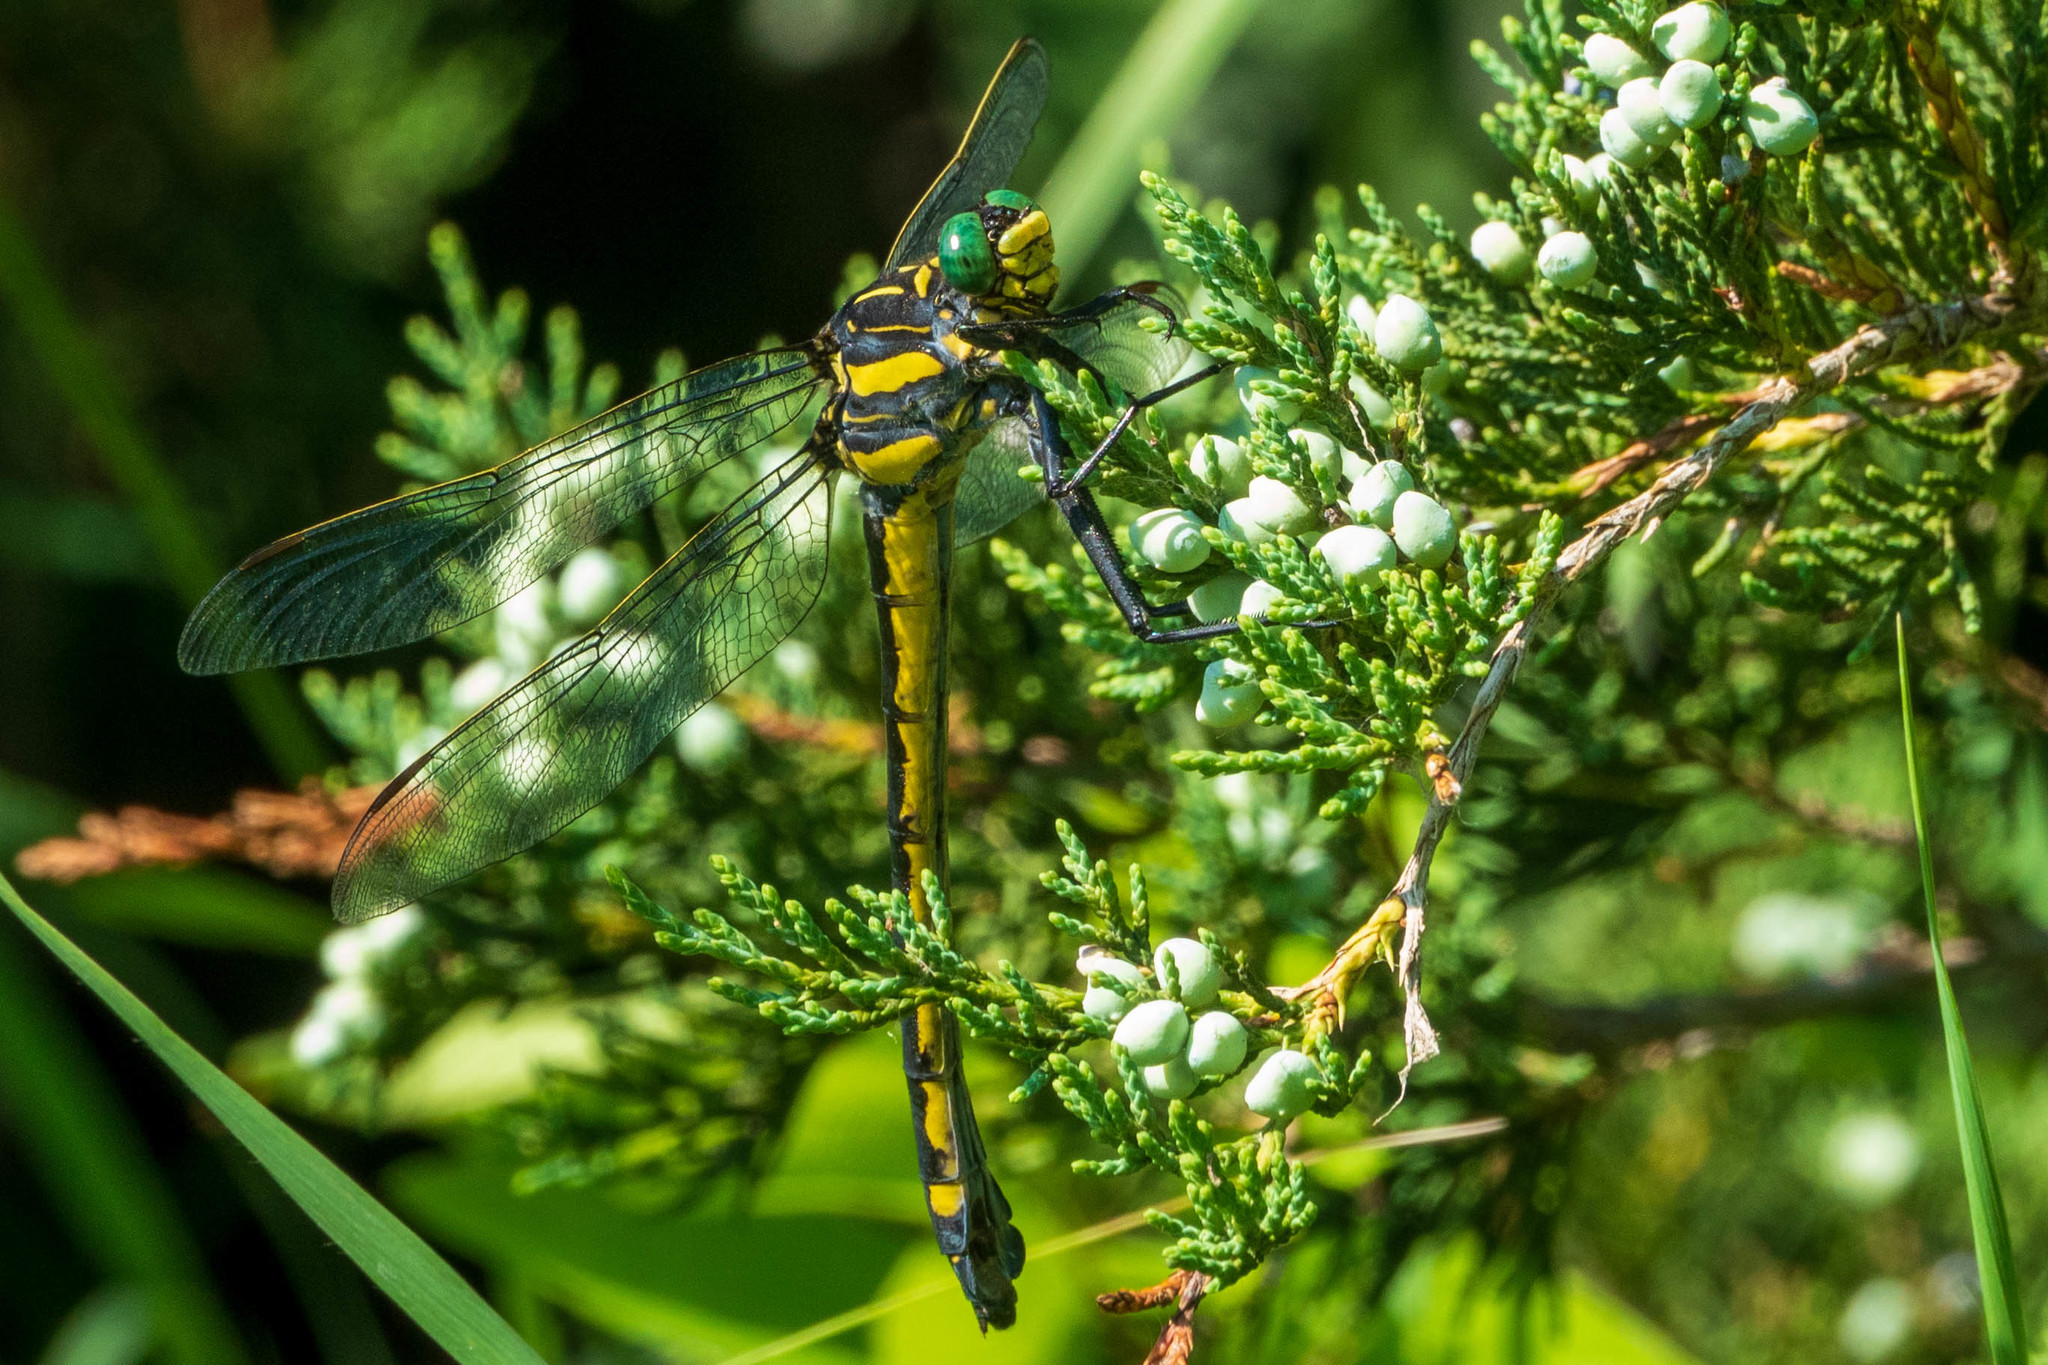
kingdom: Animalia
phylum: Arthropoda
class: Insecta
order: Odonata
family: Gomphidae
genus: Hagenius
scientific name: Hagenius brevistylus
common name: Dragonhunter
